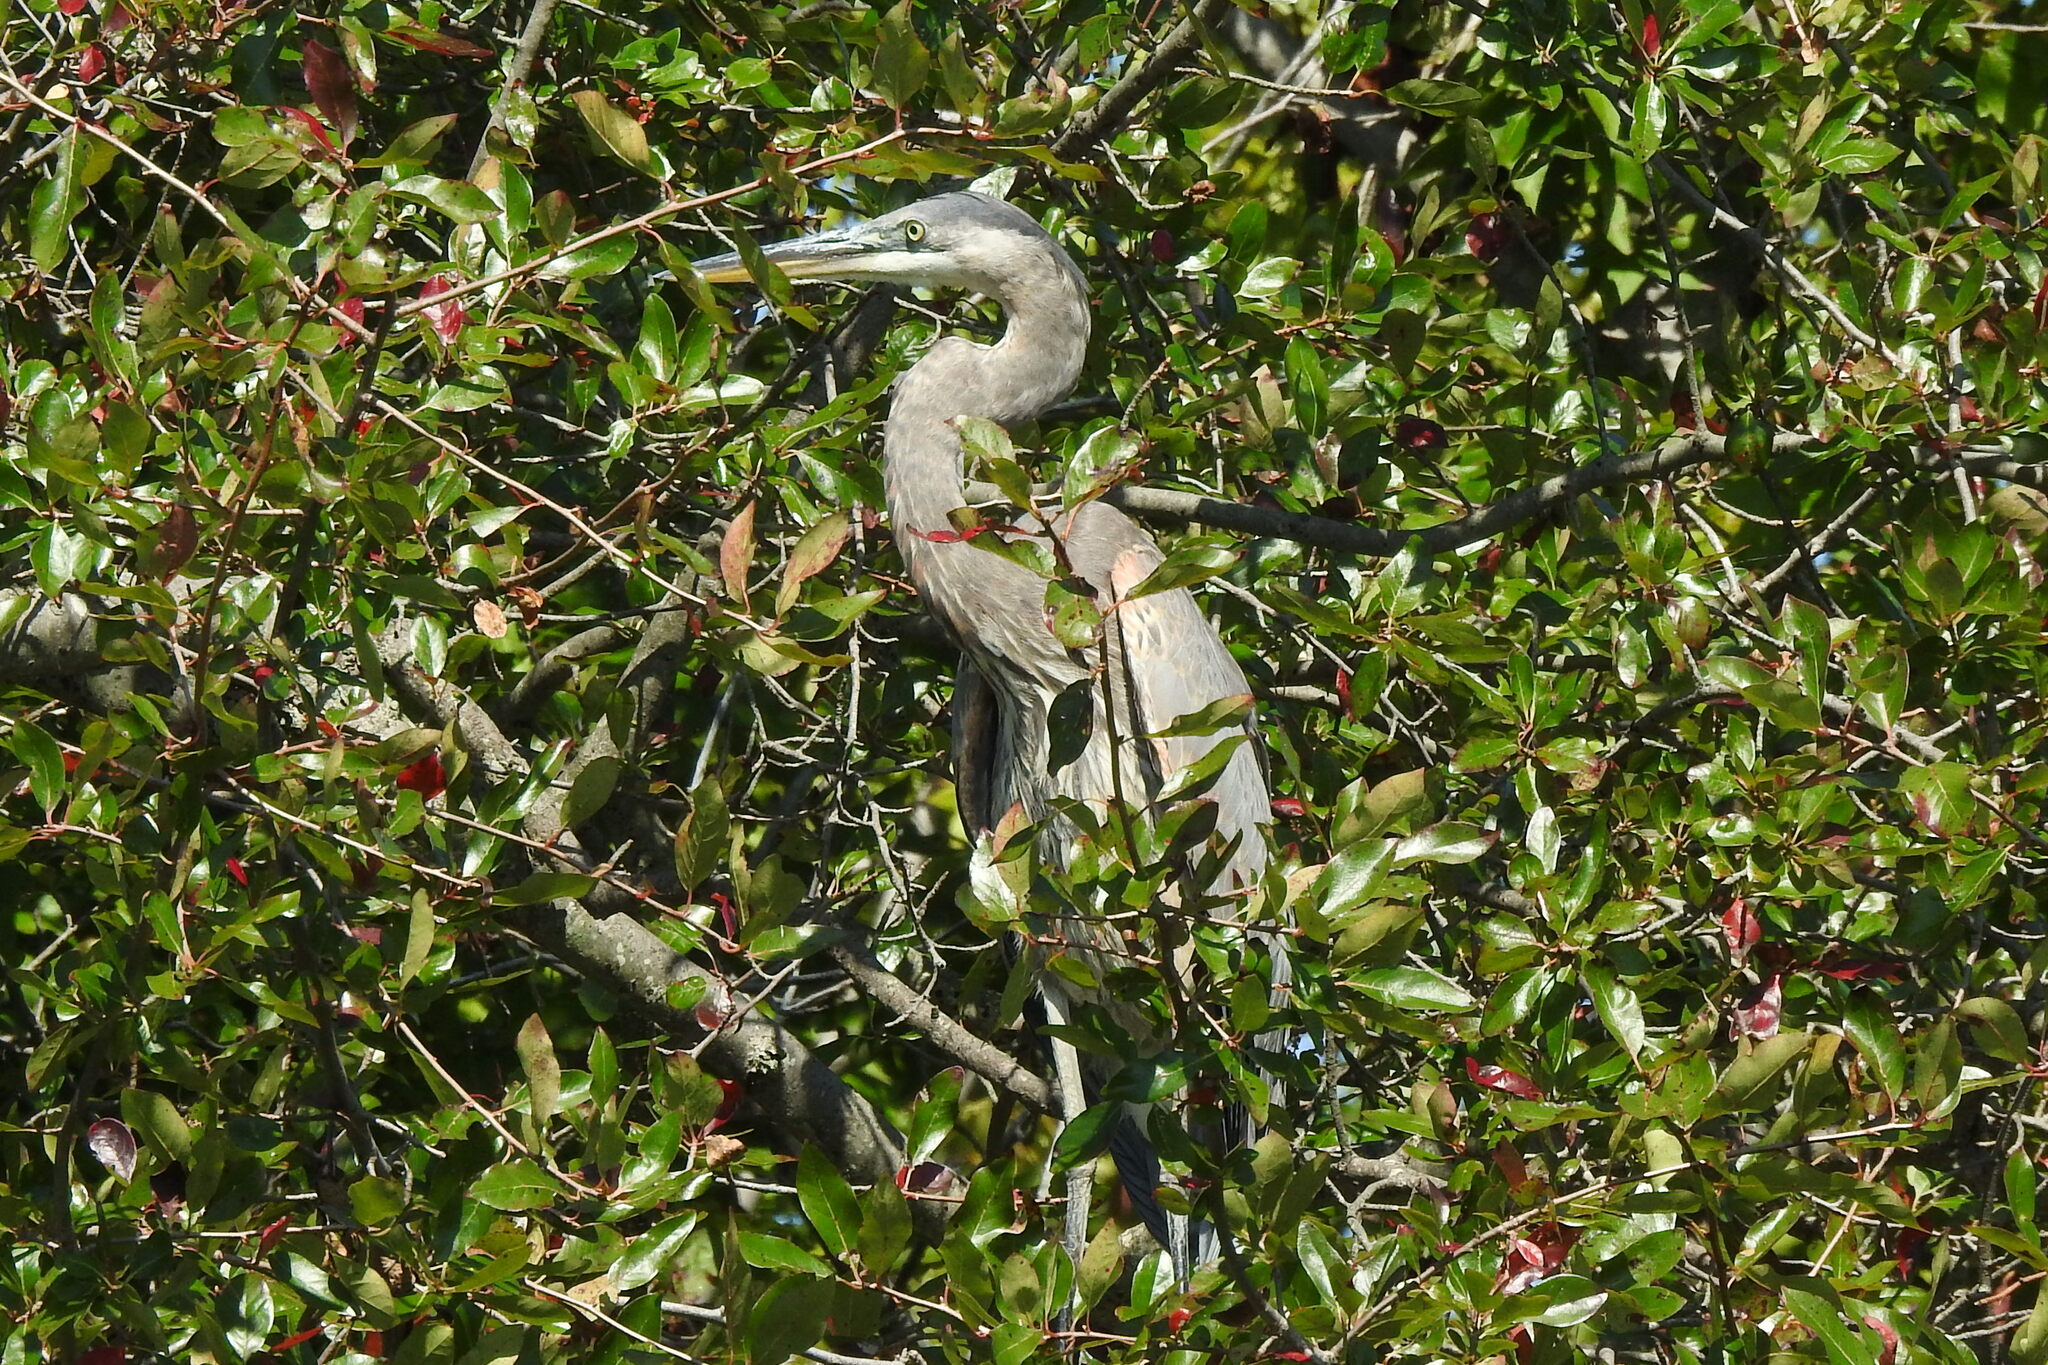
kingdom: Animalia
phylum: Chordata
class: Aves
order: Pelecaniformes
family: Ardeidae
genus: Ardea
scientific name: Ardea herodias
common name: Great blue heron
